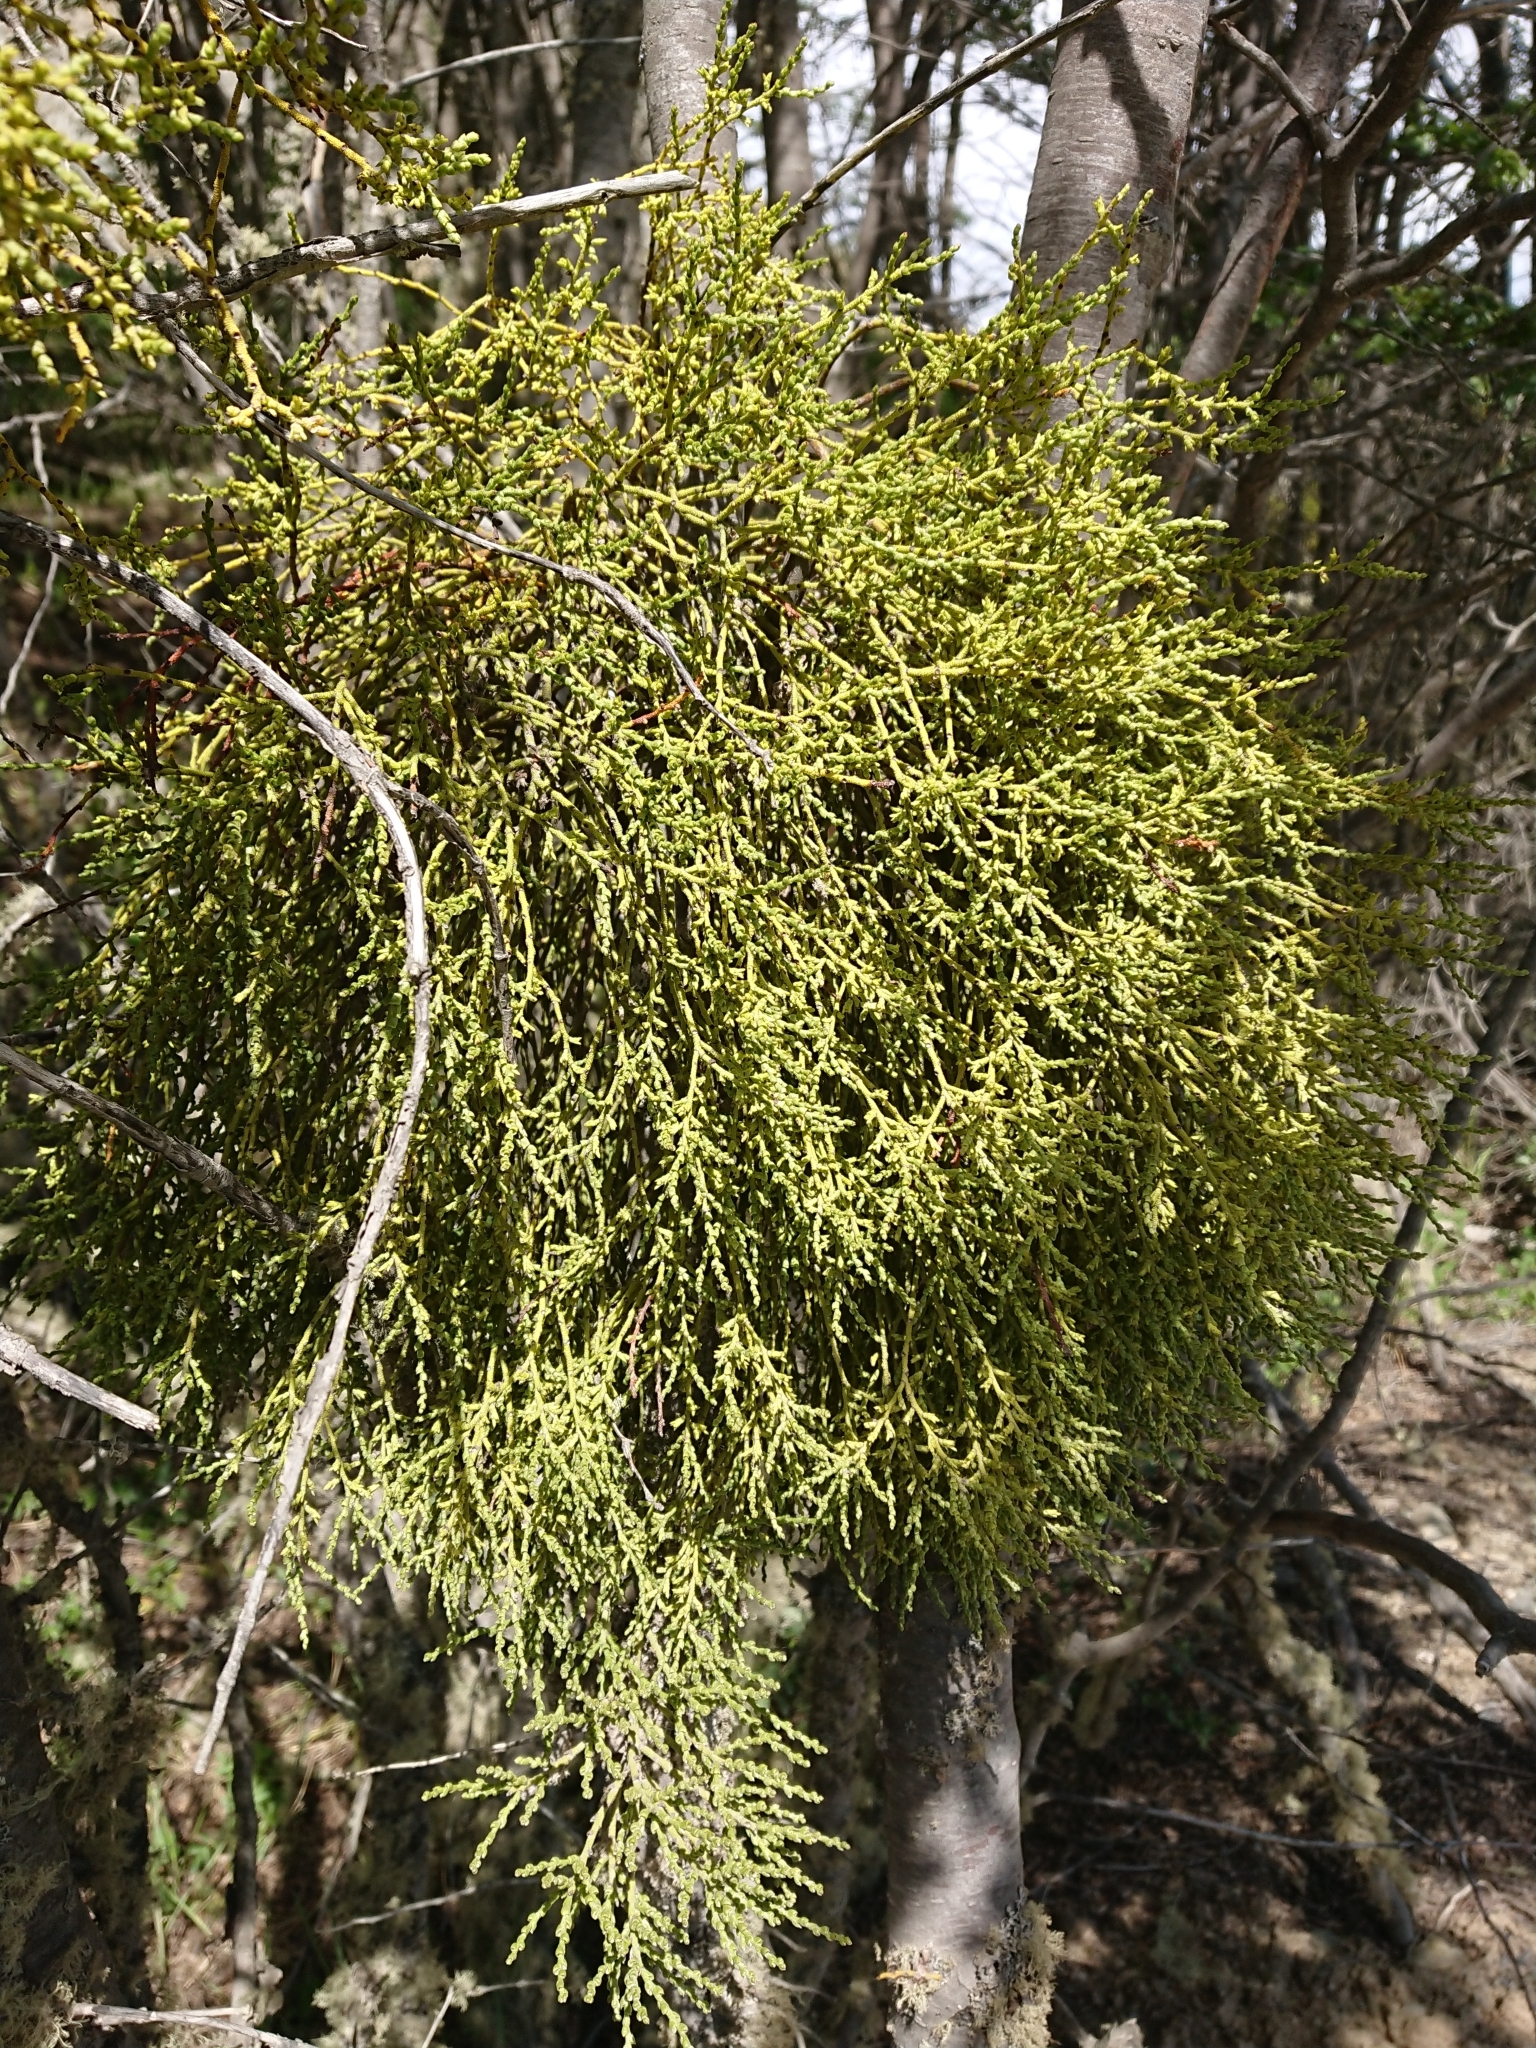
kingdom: Plantae
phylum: Tracheophyta
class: Magnoliopsida
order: Santalales
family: Misodendraceae
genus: Misodendrum
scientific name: Misodendrum punctulatum
